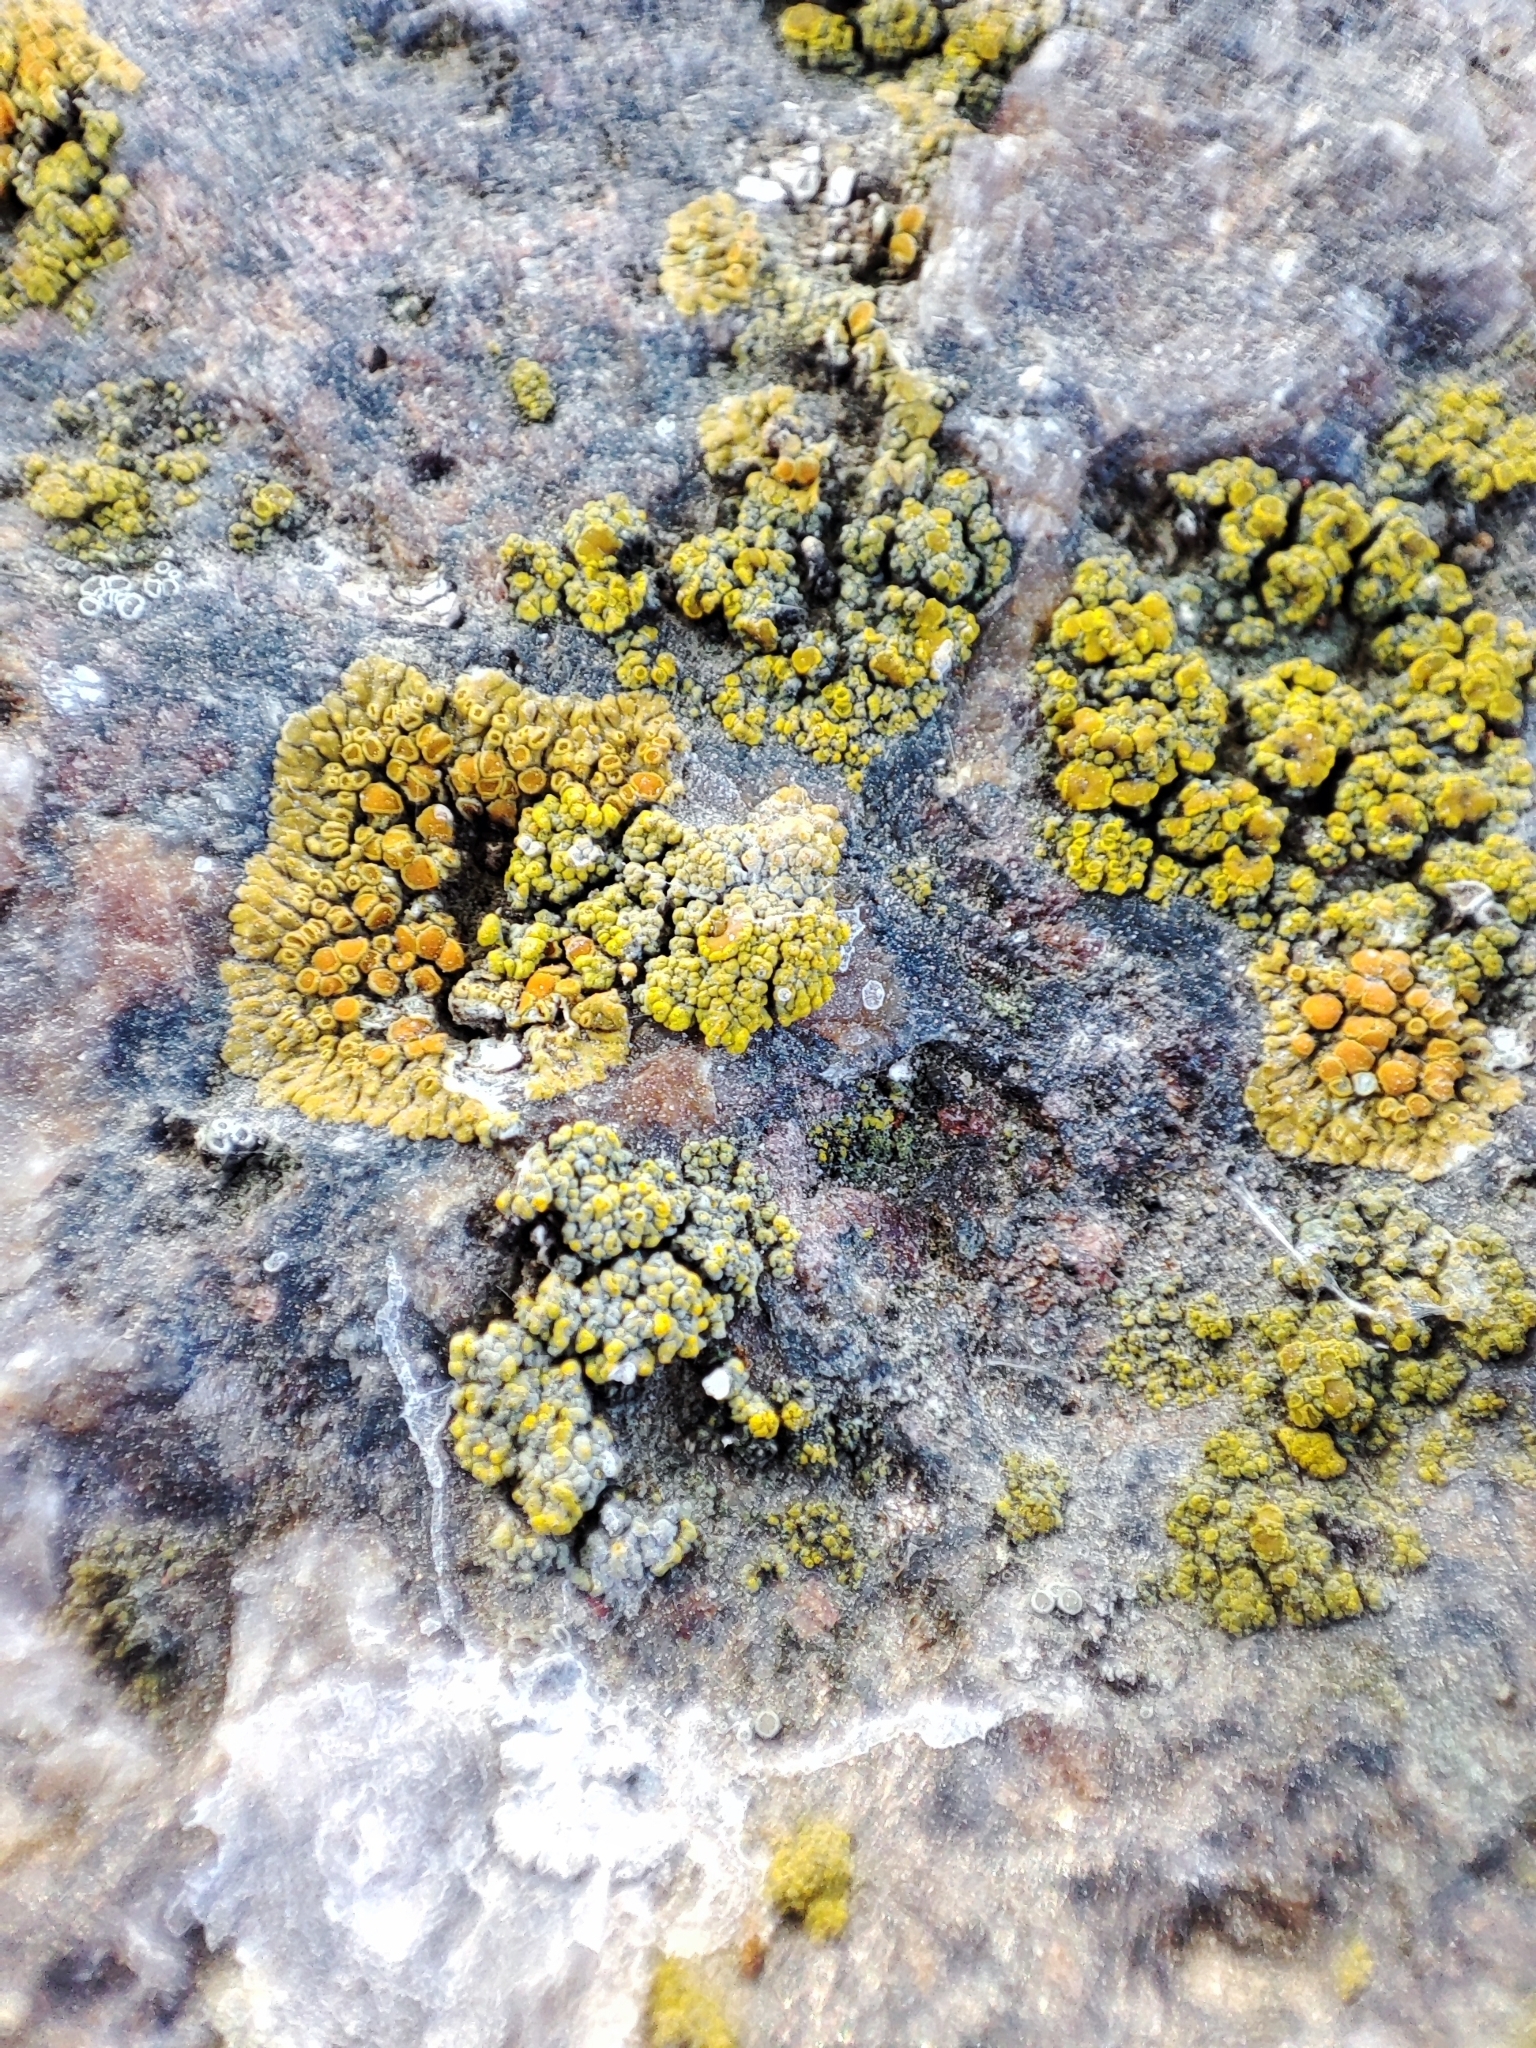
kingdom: Fungi
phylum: Ascomycota
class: Lecanoromycetes
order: Teloschistales
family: Teloschistaceae
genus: Calogaya
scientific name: Calogaya saxicola
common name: Rock jewel lichen
